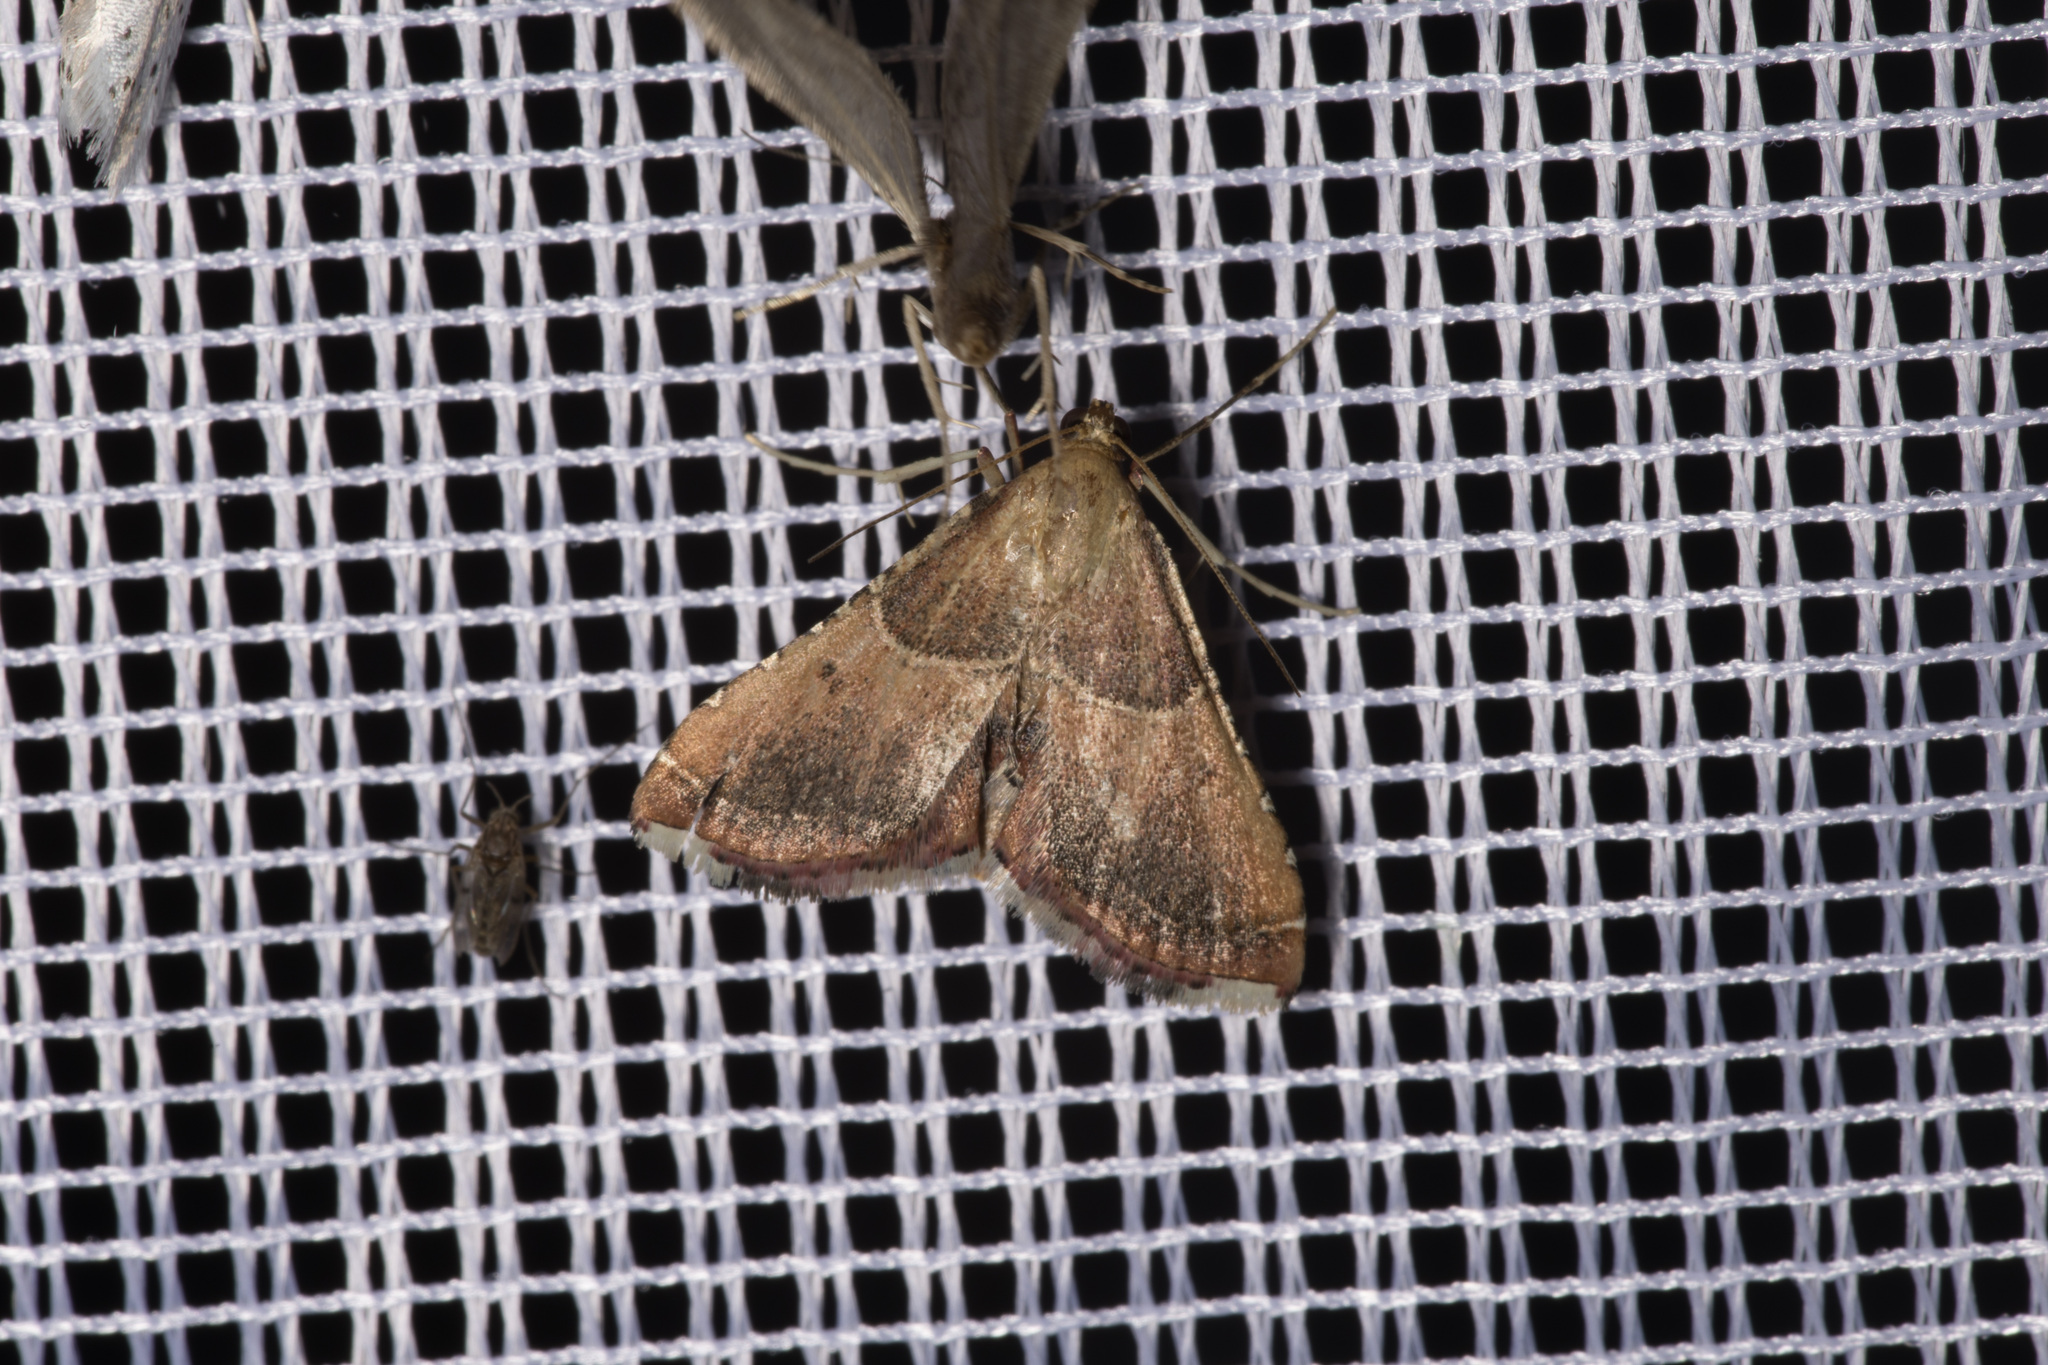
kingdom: Animalia
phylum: Arthropoda
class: Insecta
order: Lepidoptera
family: Pyralidae
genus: Endotricha
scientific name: Endotricha flammealis
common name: Rosy tabby
